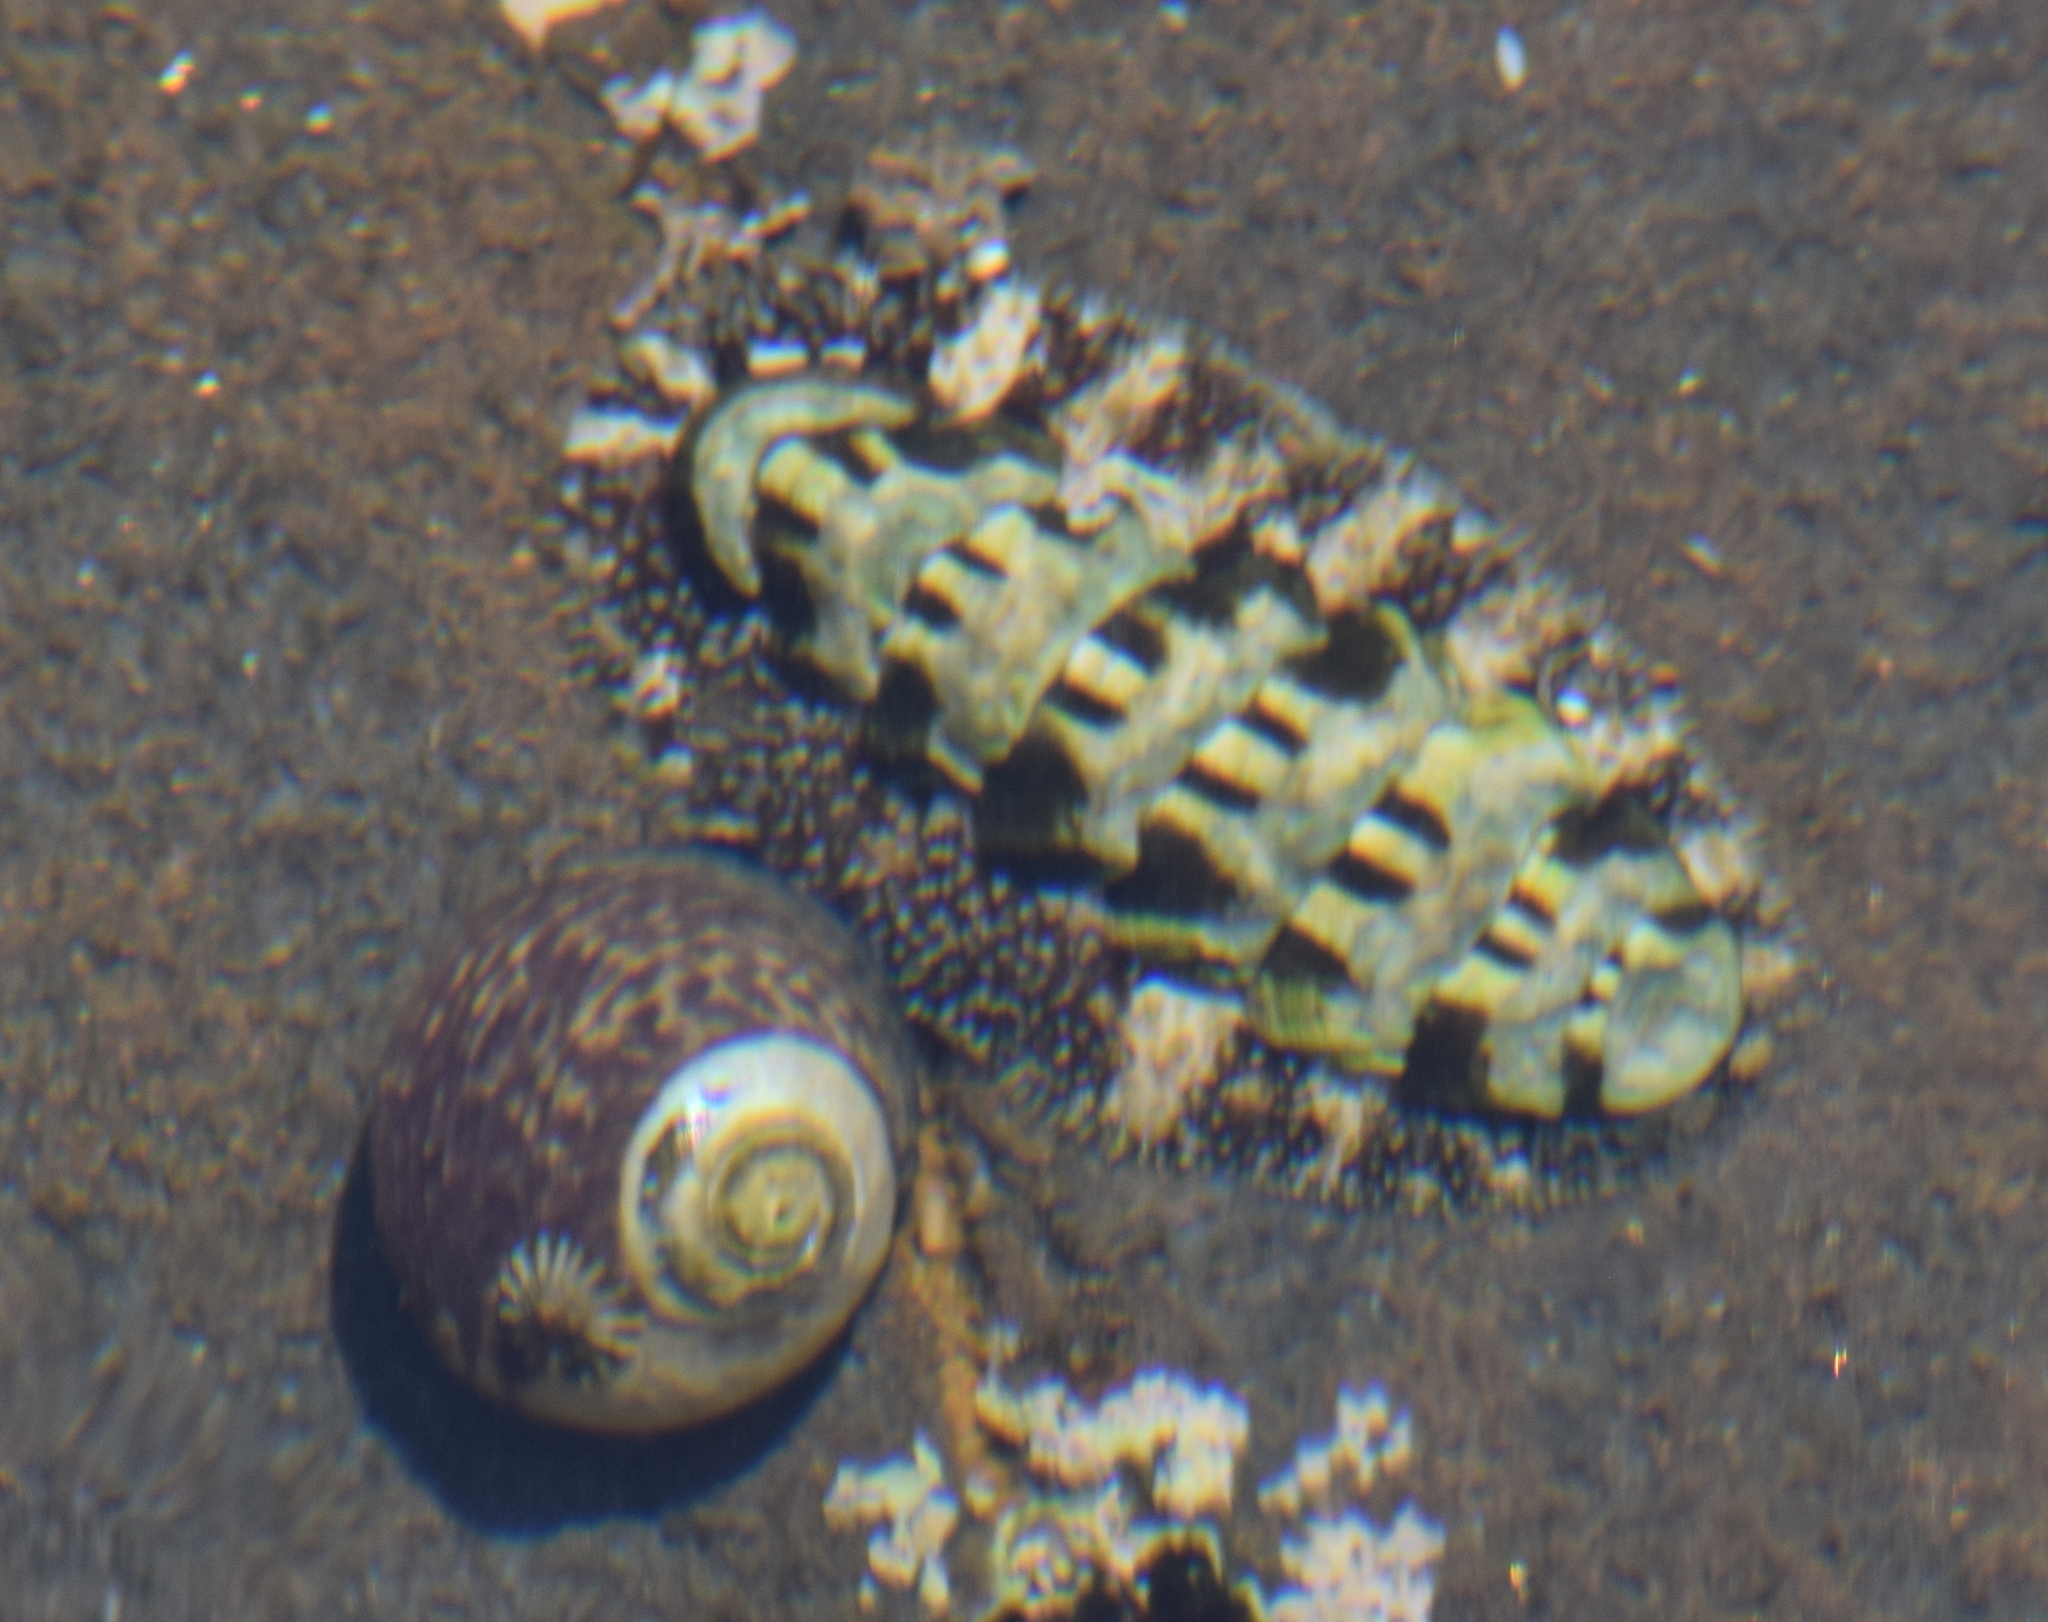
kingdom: Animalia
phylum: Mollusca
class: Polyplacophora
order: Chitonida
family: Tonicellidae
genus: Nuttallina
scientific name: Nuttallina californica
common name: California nuttall chiton
